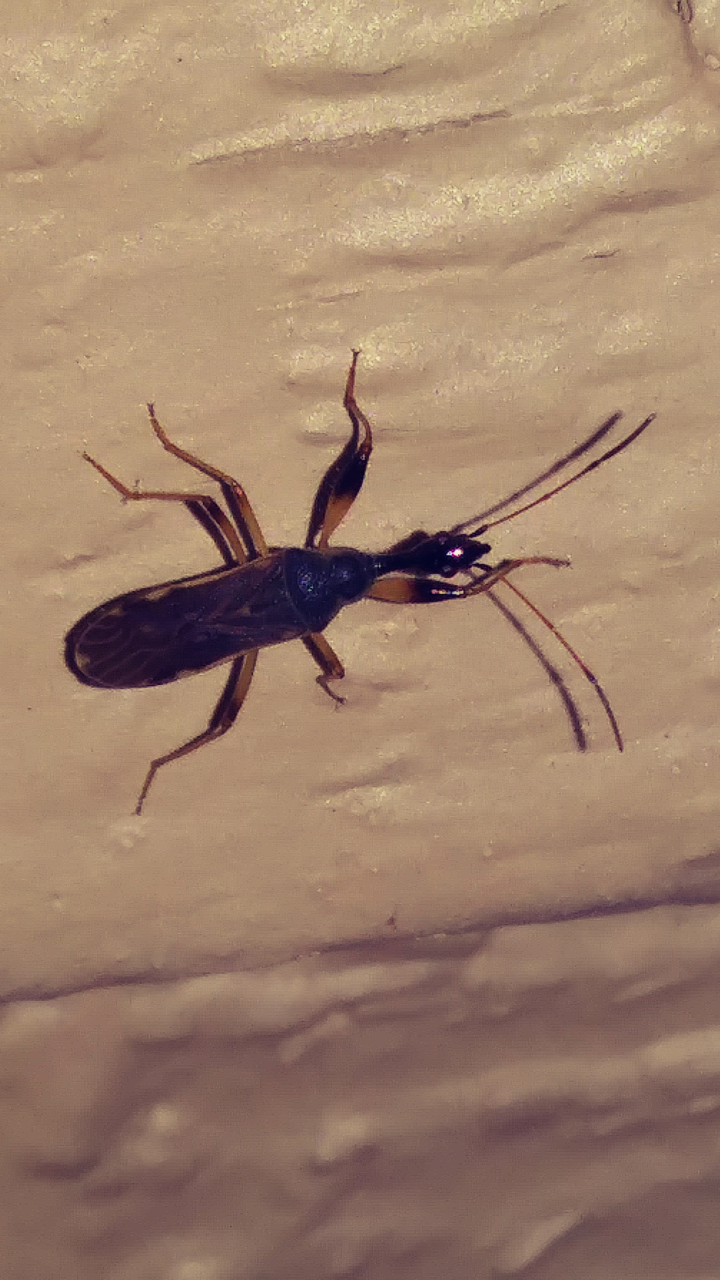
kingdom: Animalia
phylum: Arthropoda
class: Insecta
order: Hemiptera
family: Rhyparochromidae
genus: Myodocha
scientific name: Myodocha serripes
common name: Long-necked seed bug
